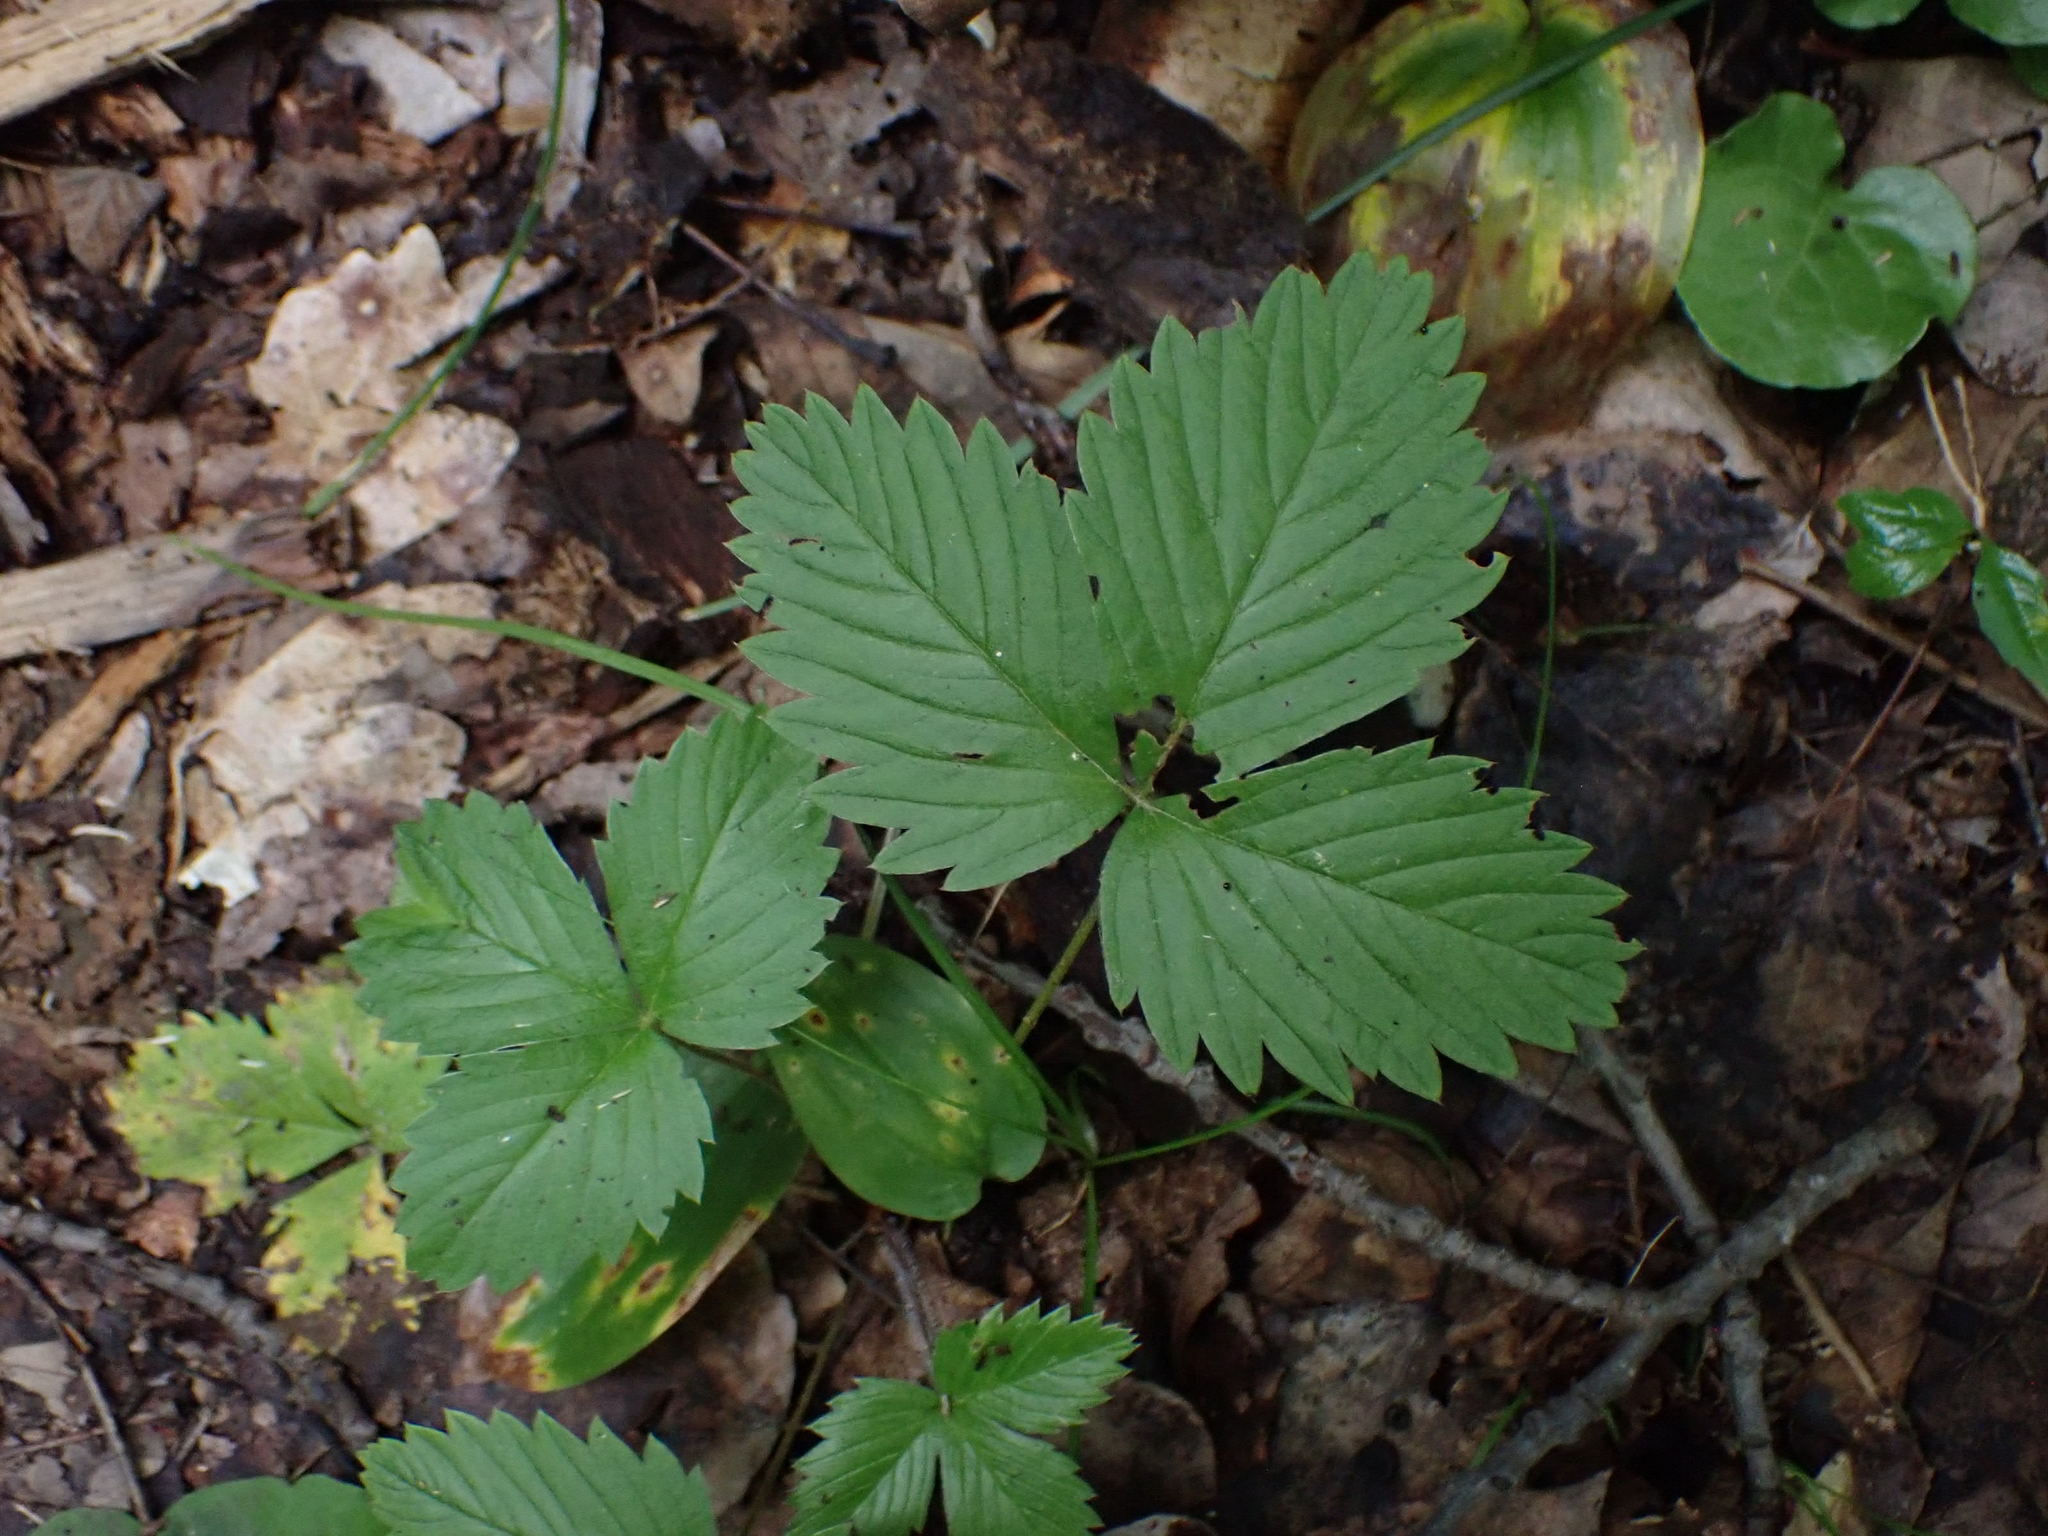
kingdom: Plantae
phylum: Tracheophyta
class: Magnoliopsida
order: Rosales
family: Rosaceae
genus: Fragaria
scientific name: Fragaria vesca
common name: Wild strawberry
